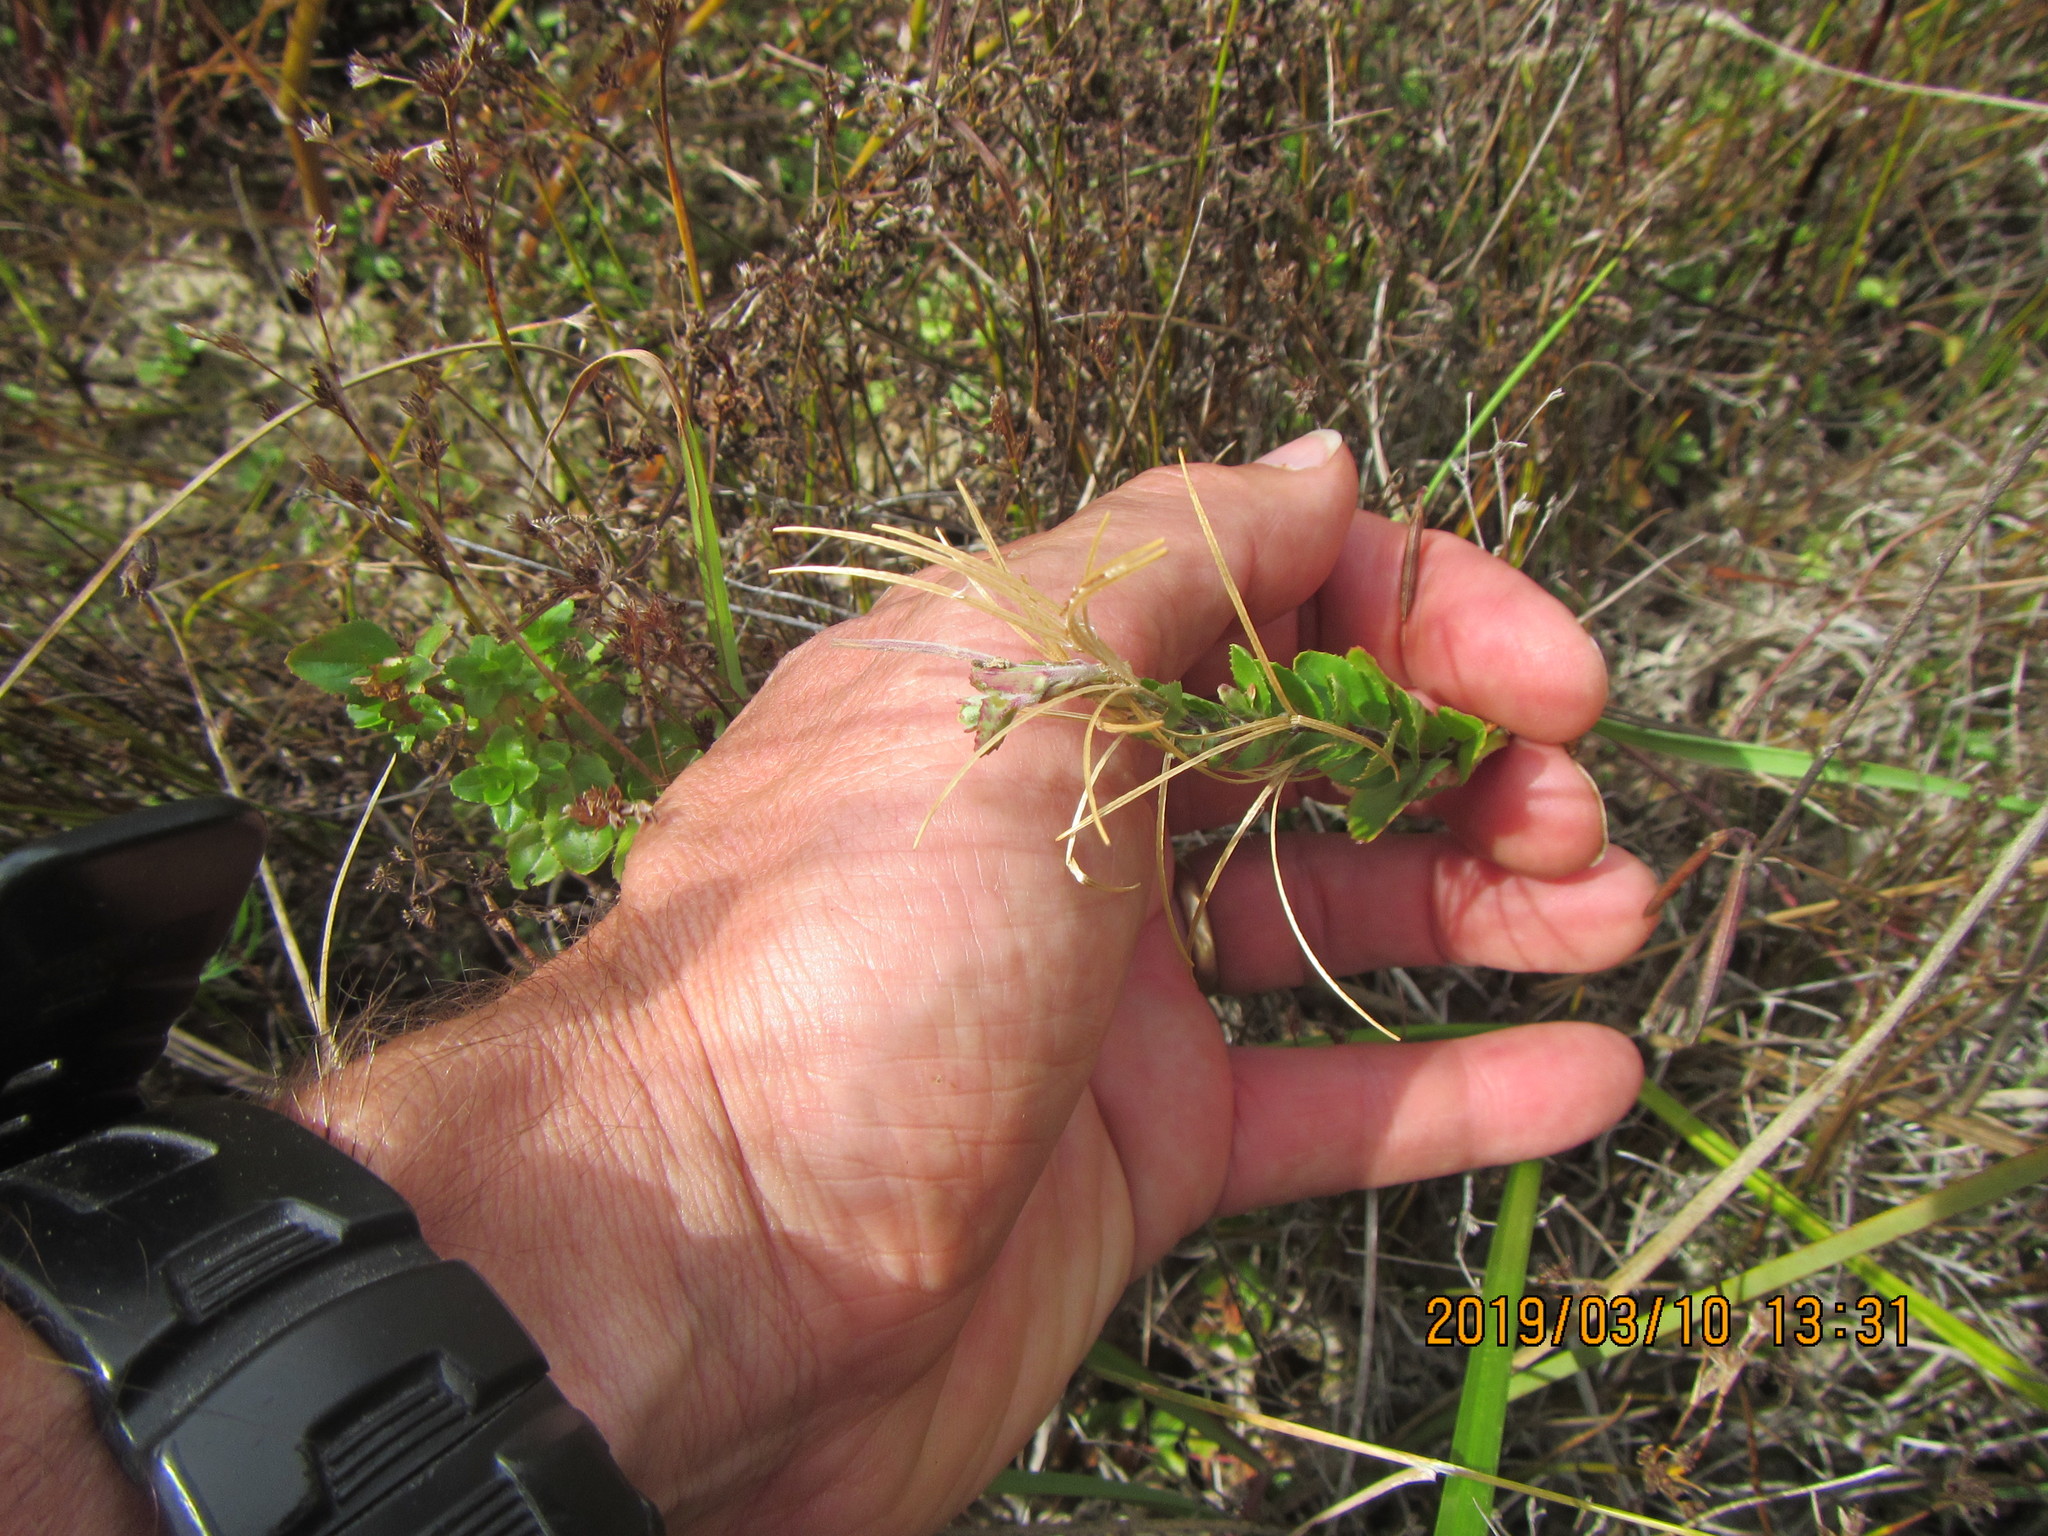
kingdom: Plantae
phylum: Tracheophyta
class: Magnoliopsida
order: Myrtales
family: Onagraceae
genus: Epilobium
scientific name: Epilobium billardiereanum
